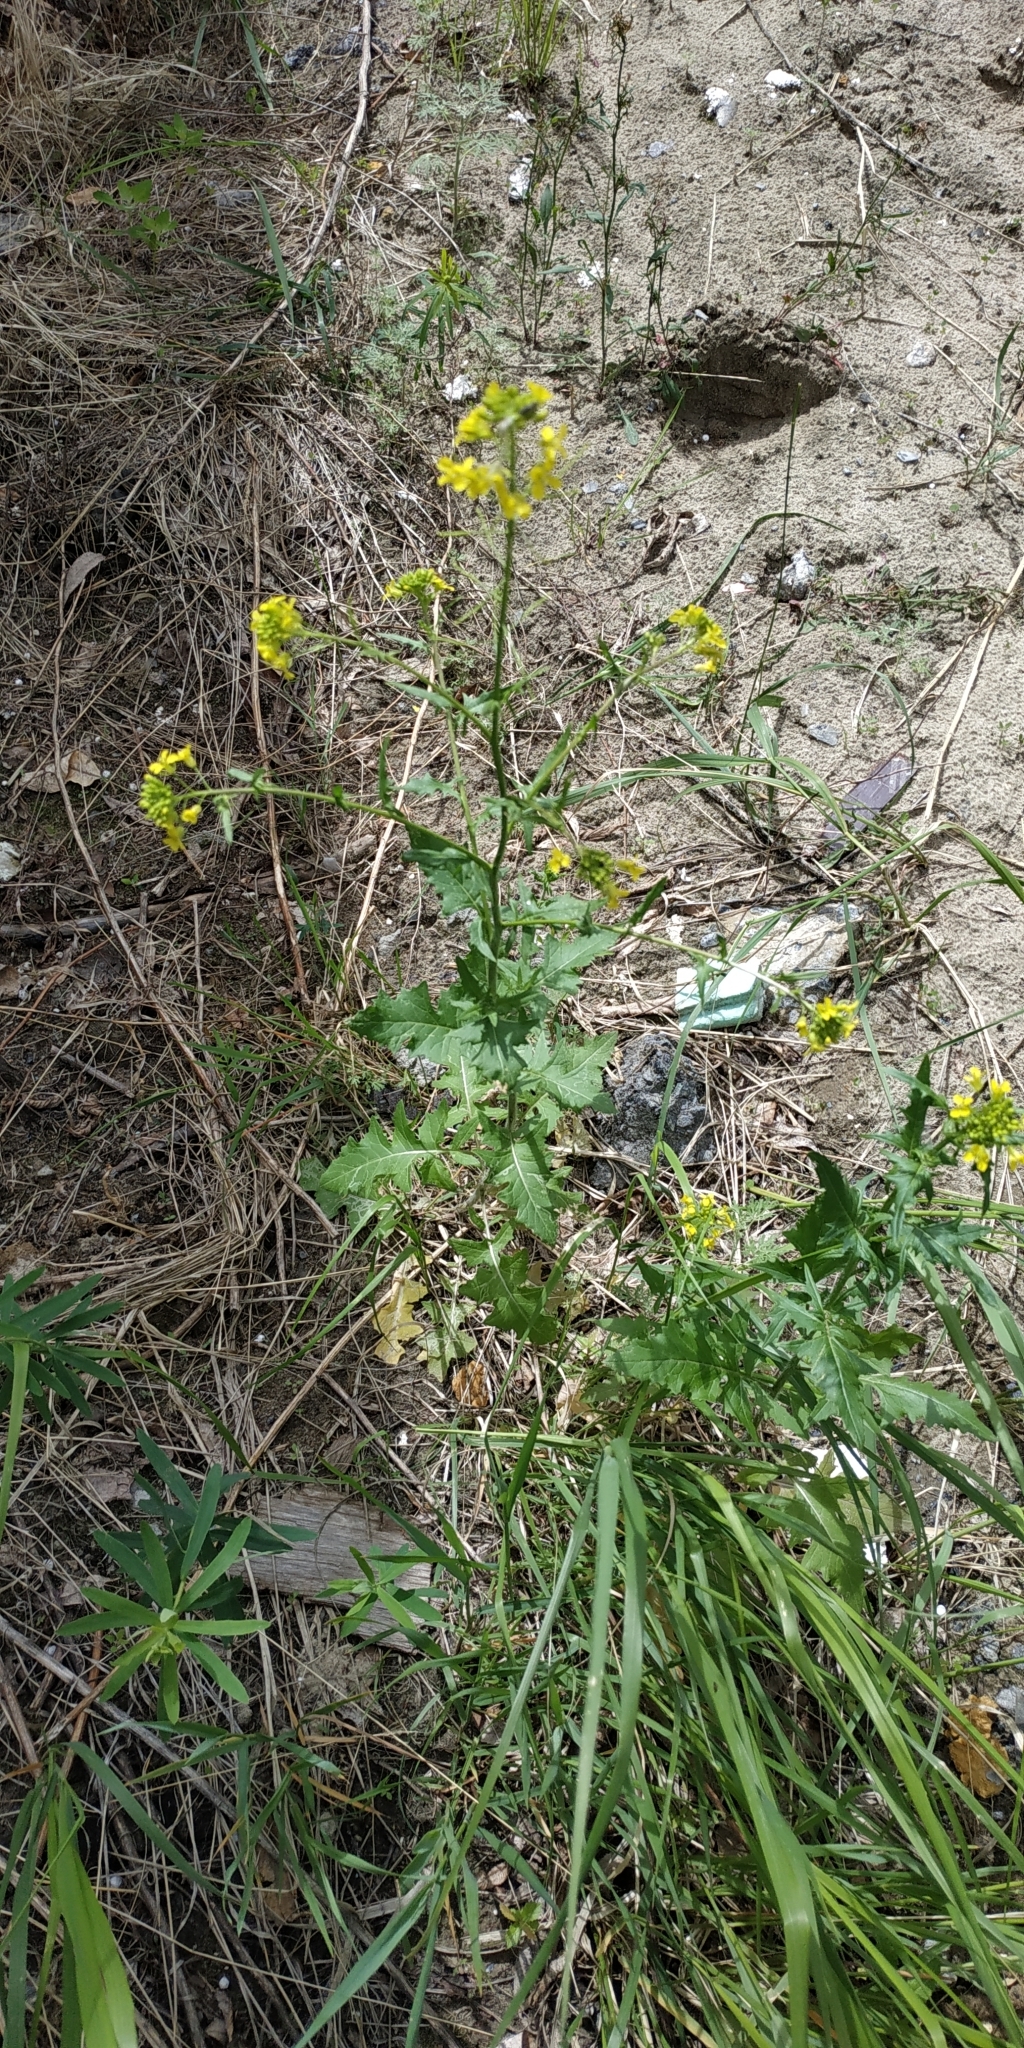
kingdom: Plantae
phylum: Tracheophyta
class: Magnoliopsida
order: Brassicales
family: Brassicaceae
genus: Sisymbrium
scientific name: Sisymbrium loeselii
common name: False london-rocket
